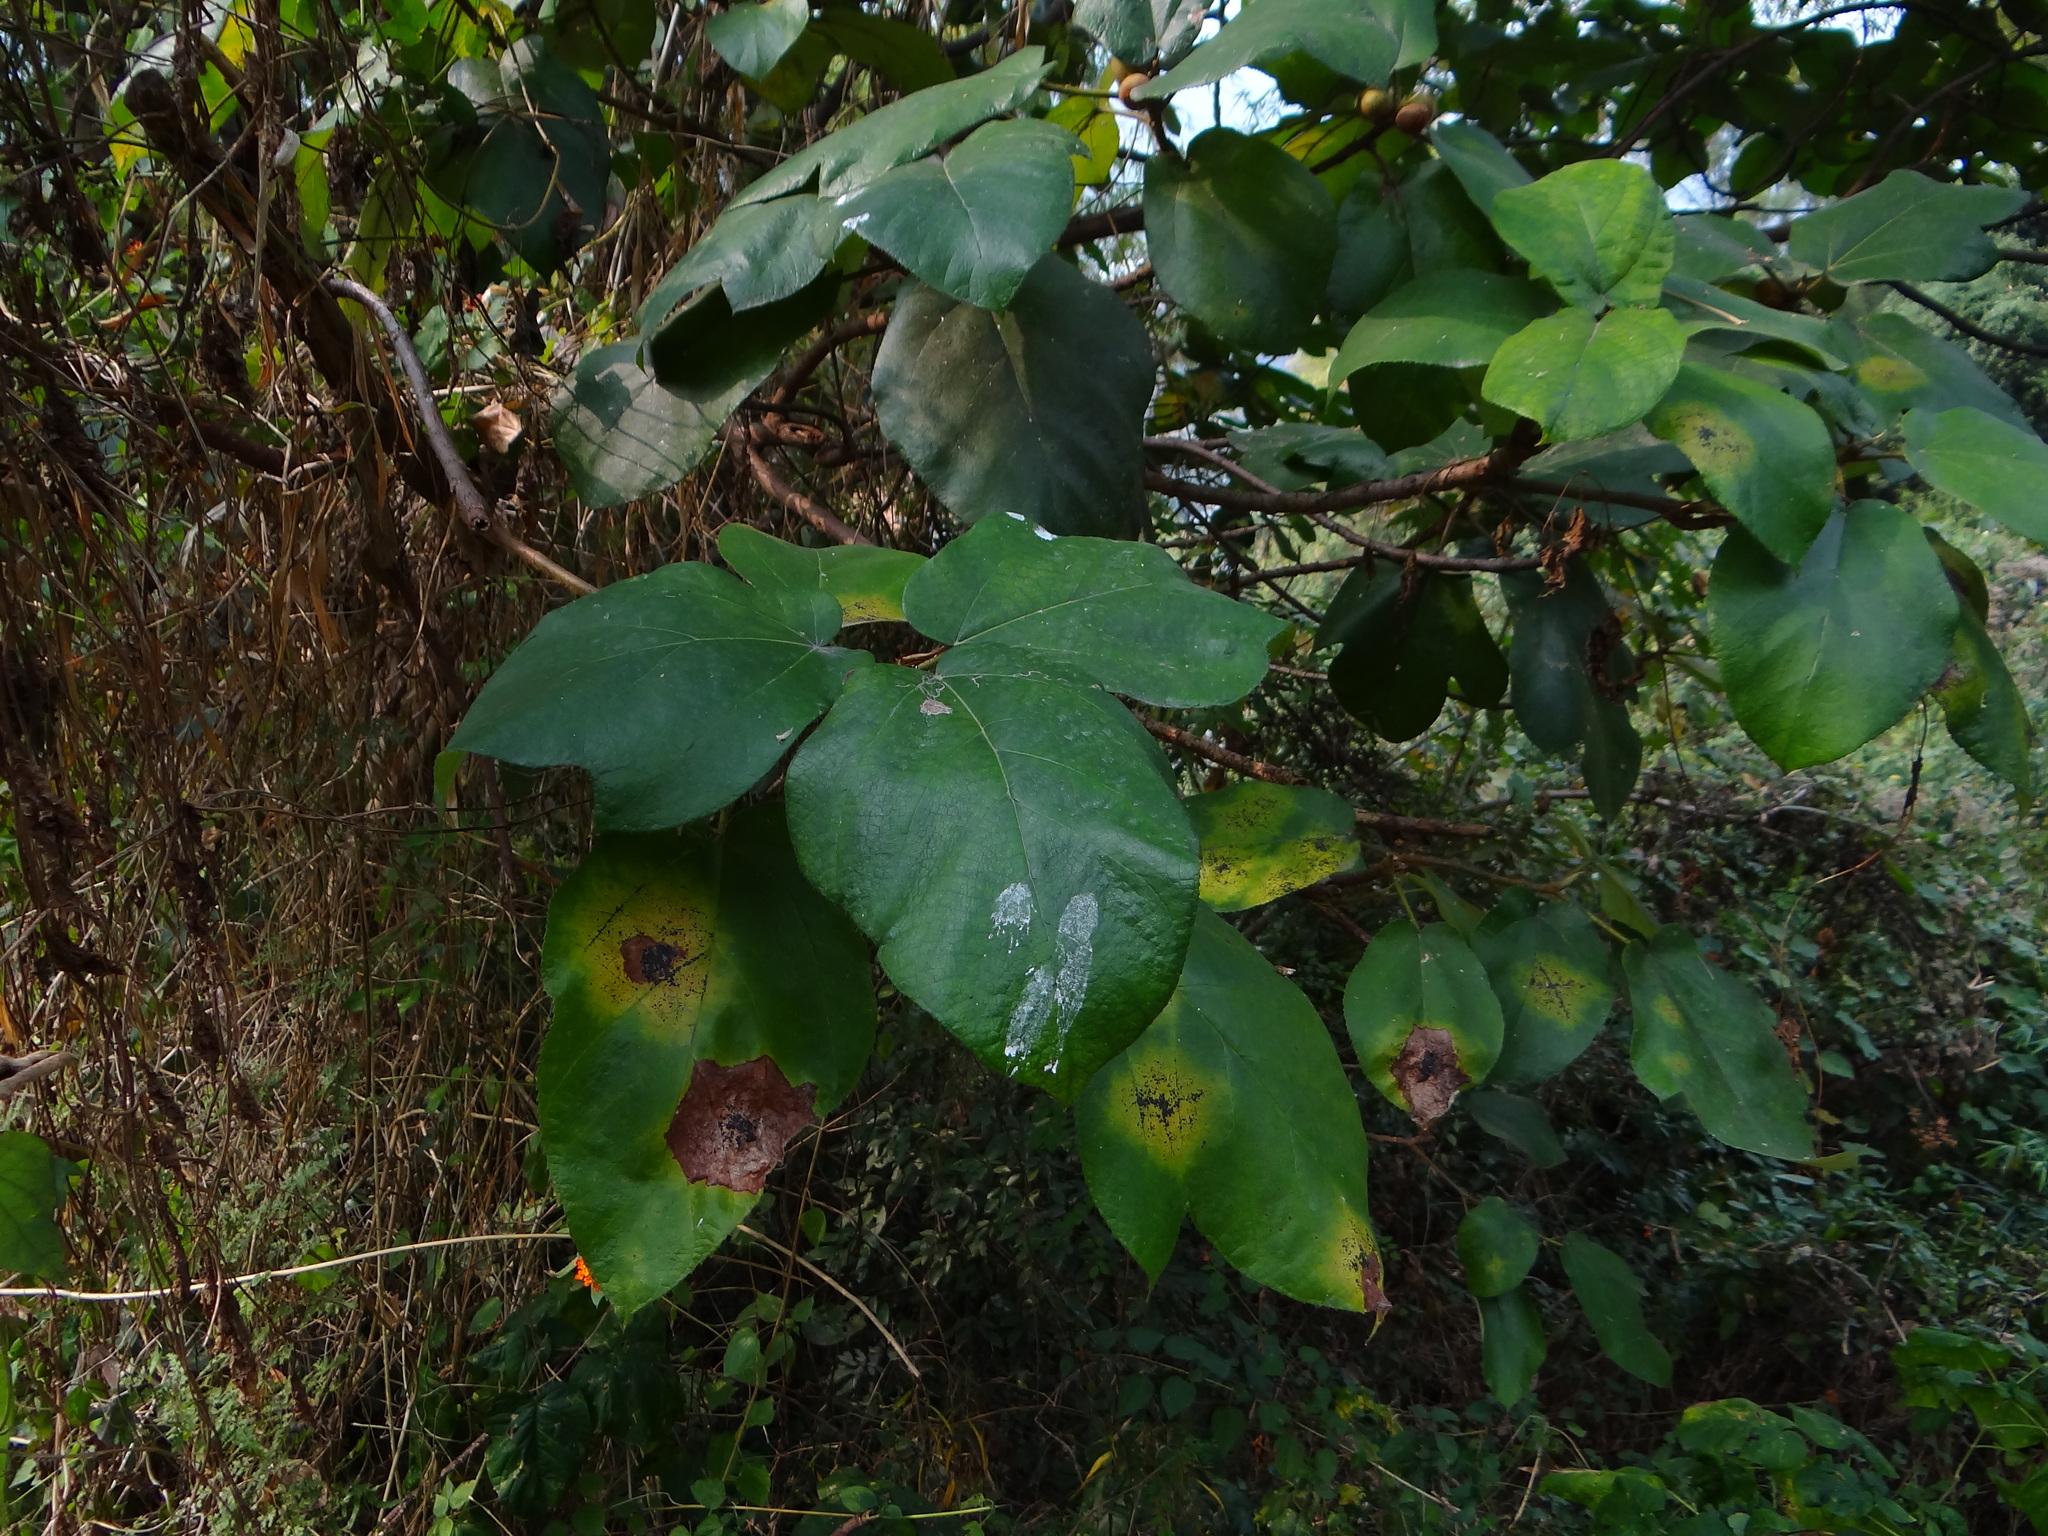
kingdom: Plantae
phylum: Tracheophyta
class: Magnoliopsida
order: Rosales
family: Moraceae
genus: Ficus
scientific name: Ficus triloba
